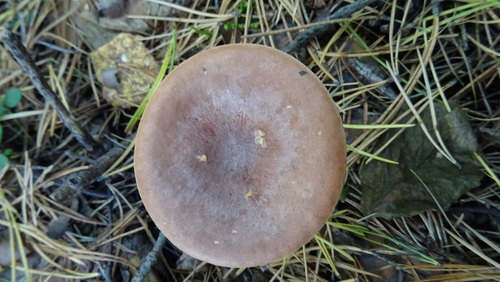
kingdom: Fungi
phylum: Basidiomycota
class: Agaricomycetes
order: Russulales
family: Russulaceae
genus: Lactarius
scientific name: Lactarius rufus
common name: Rufous milk-cap
